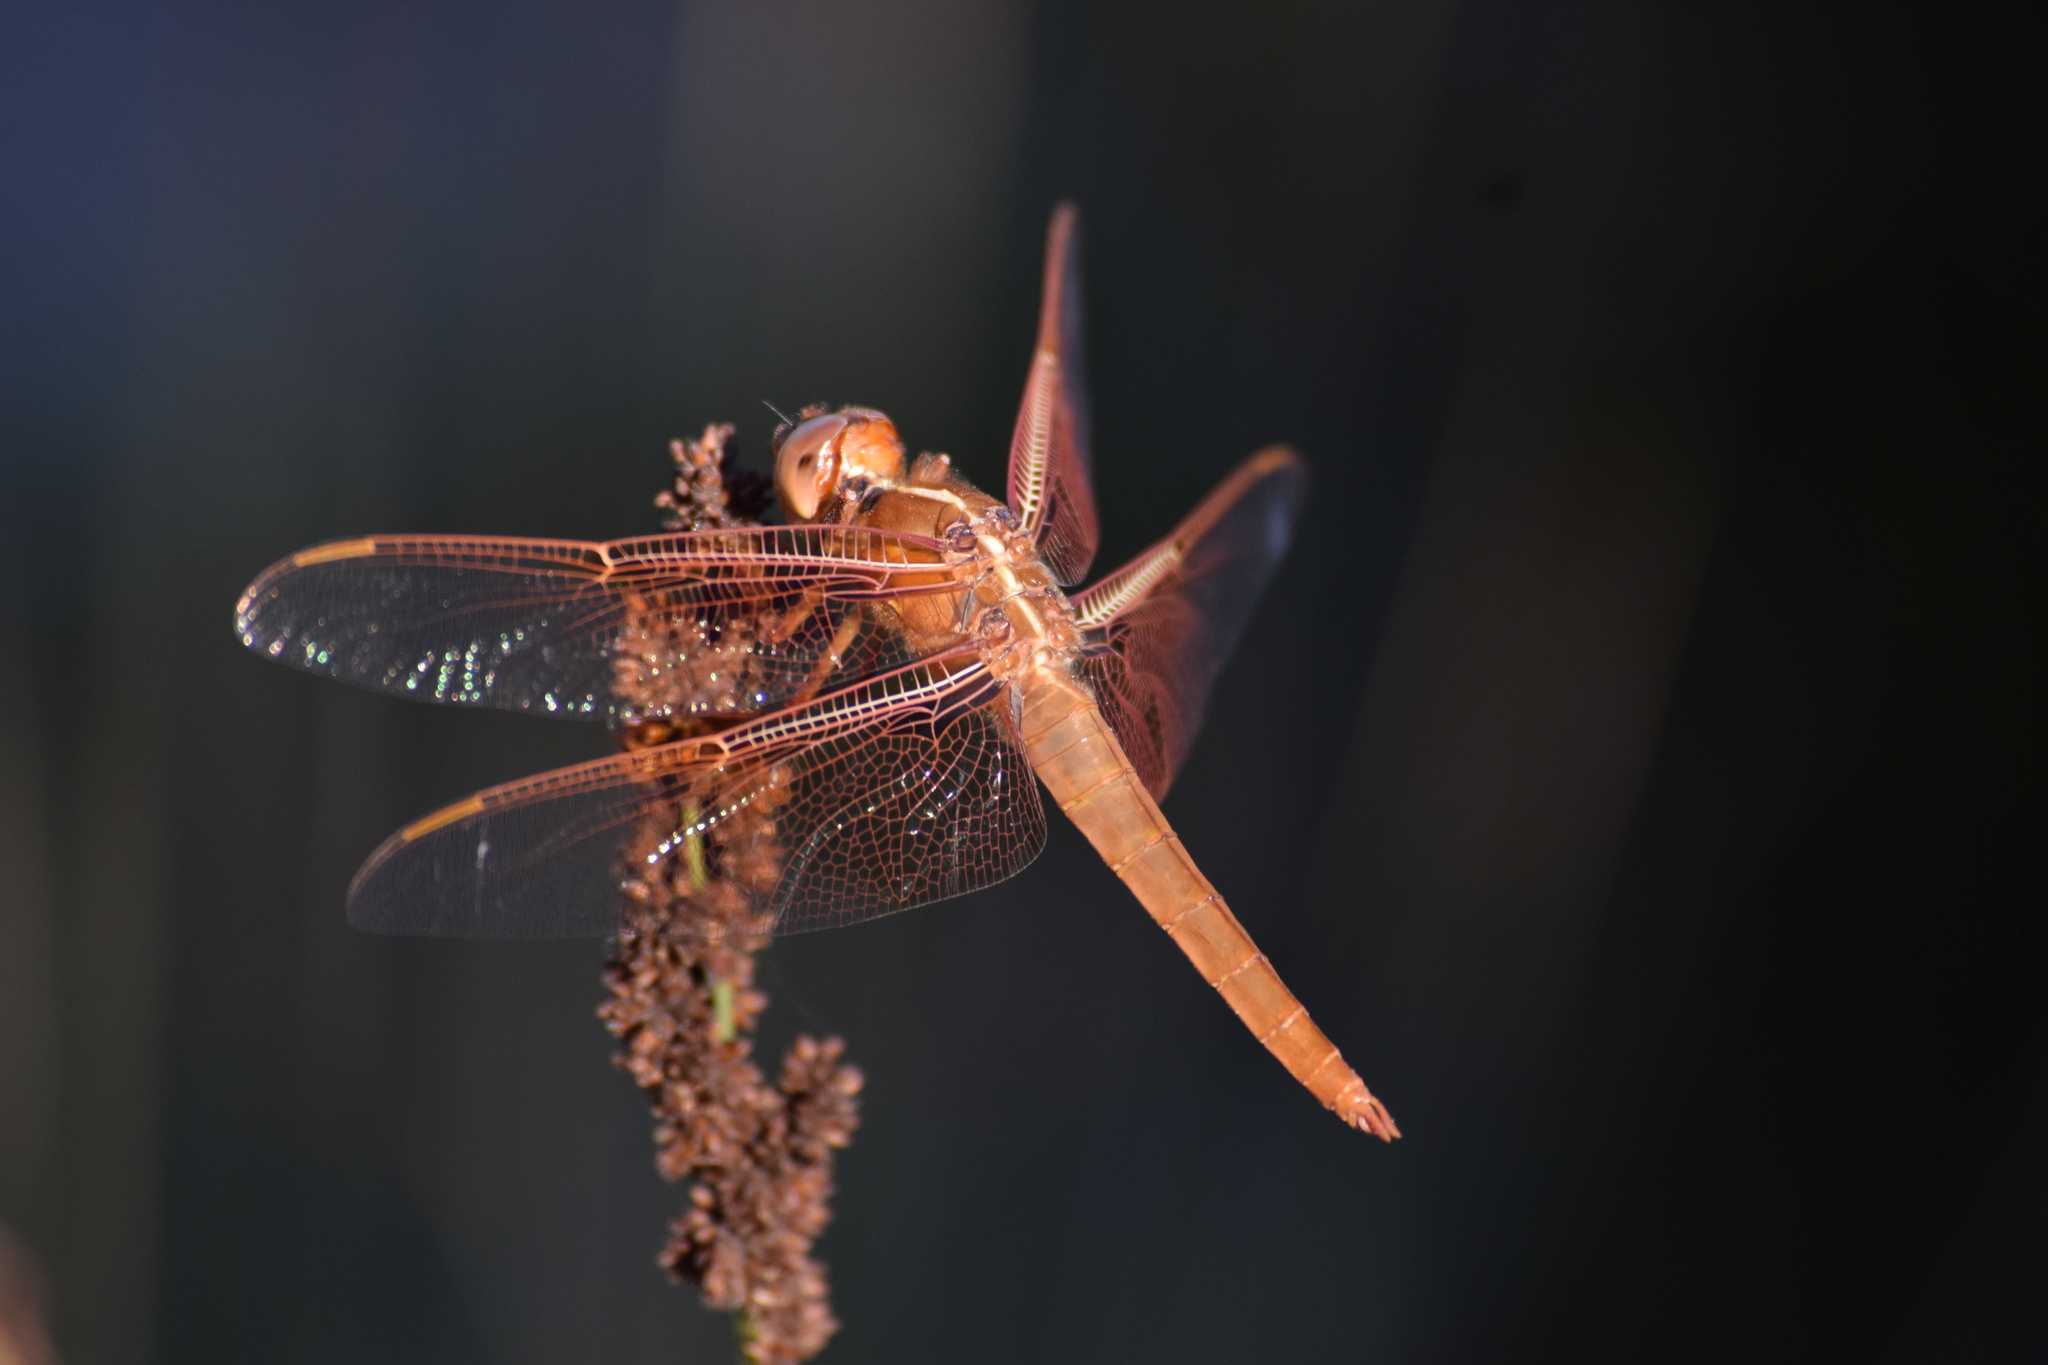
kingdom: Animalia
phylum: Arthropoda
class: Insecta
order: Odonata
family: Libellulidae
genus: Libellula
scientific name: Libellula saturata
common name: Flame skimmer
